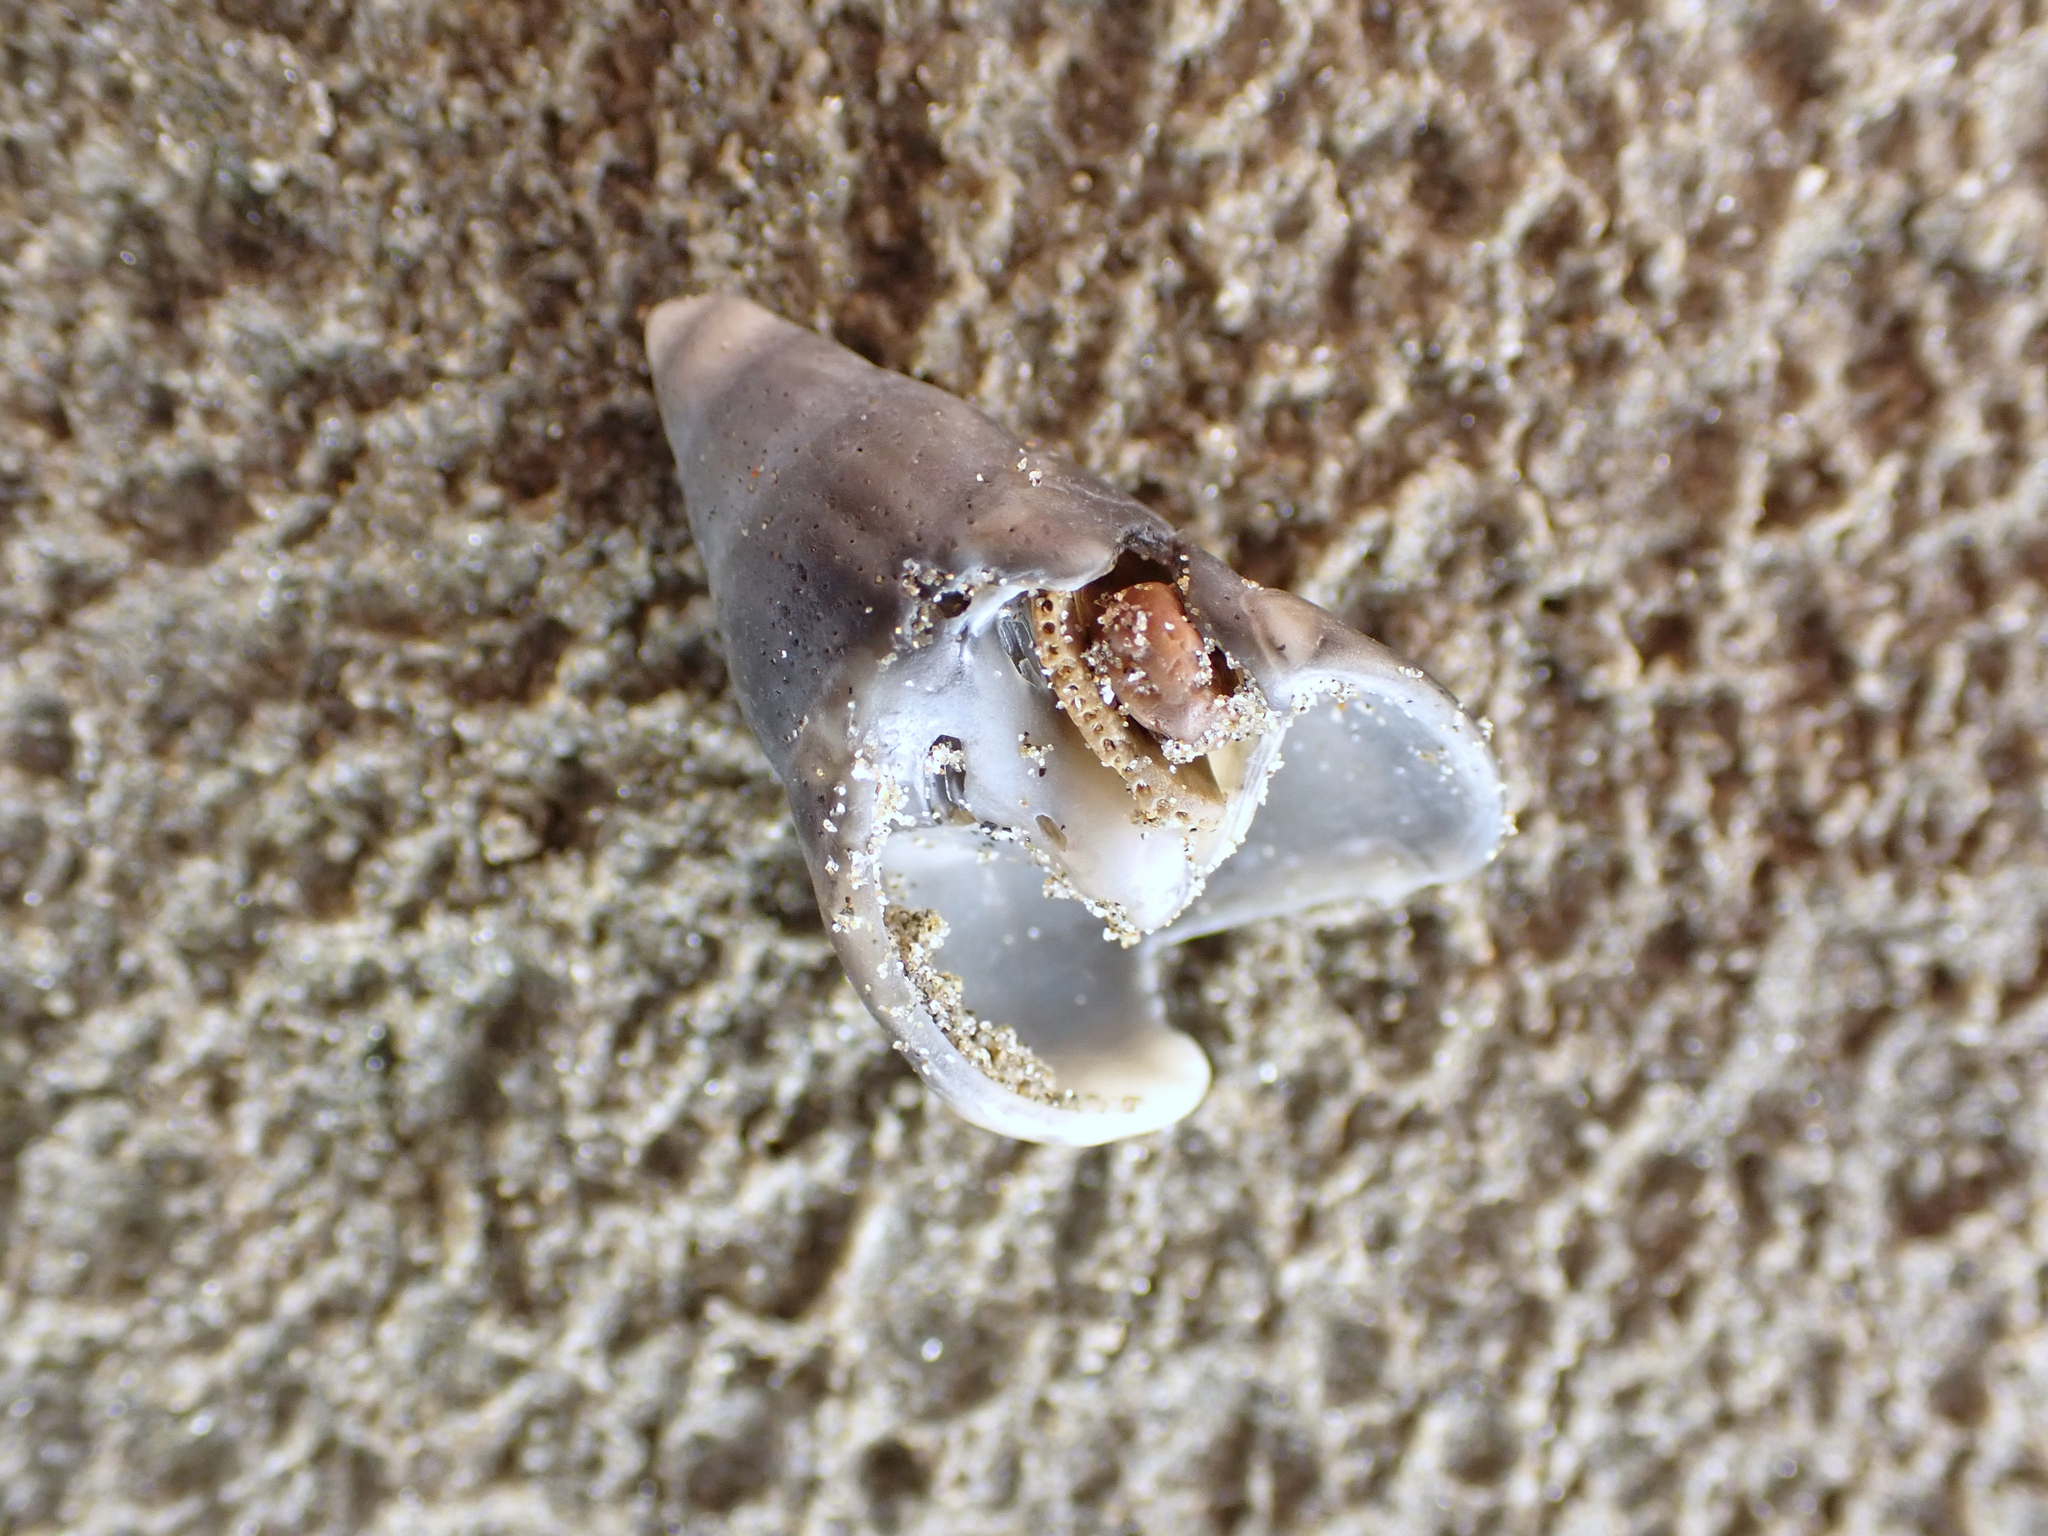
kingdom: Animalia
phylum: Mollusca
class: Gastropoda
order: Neogastropoda
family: Cominellidae
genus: Cominella
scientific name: Cominella nassoides
